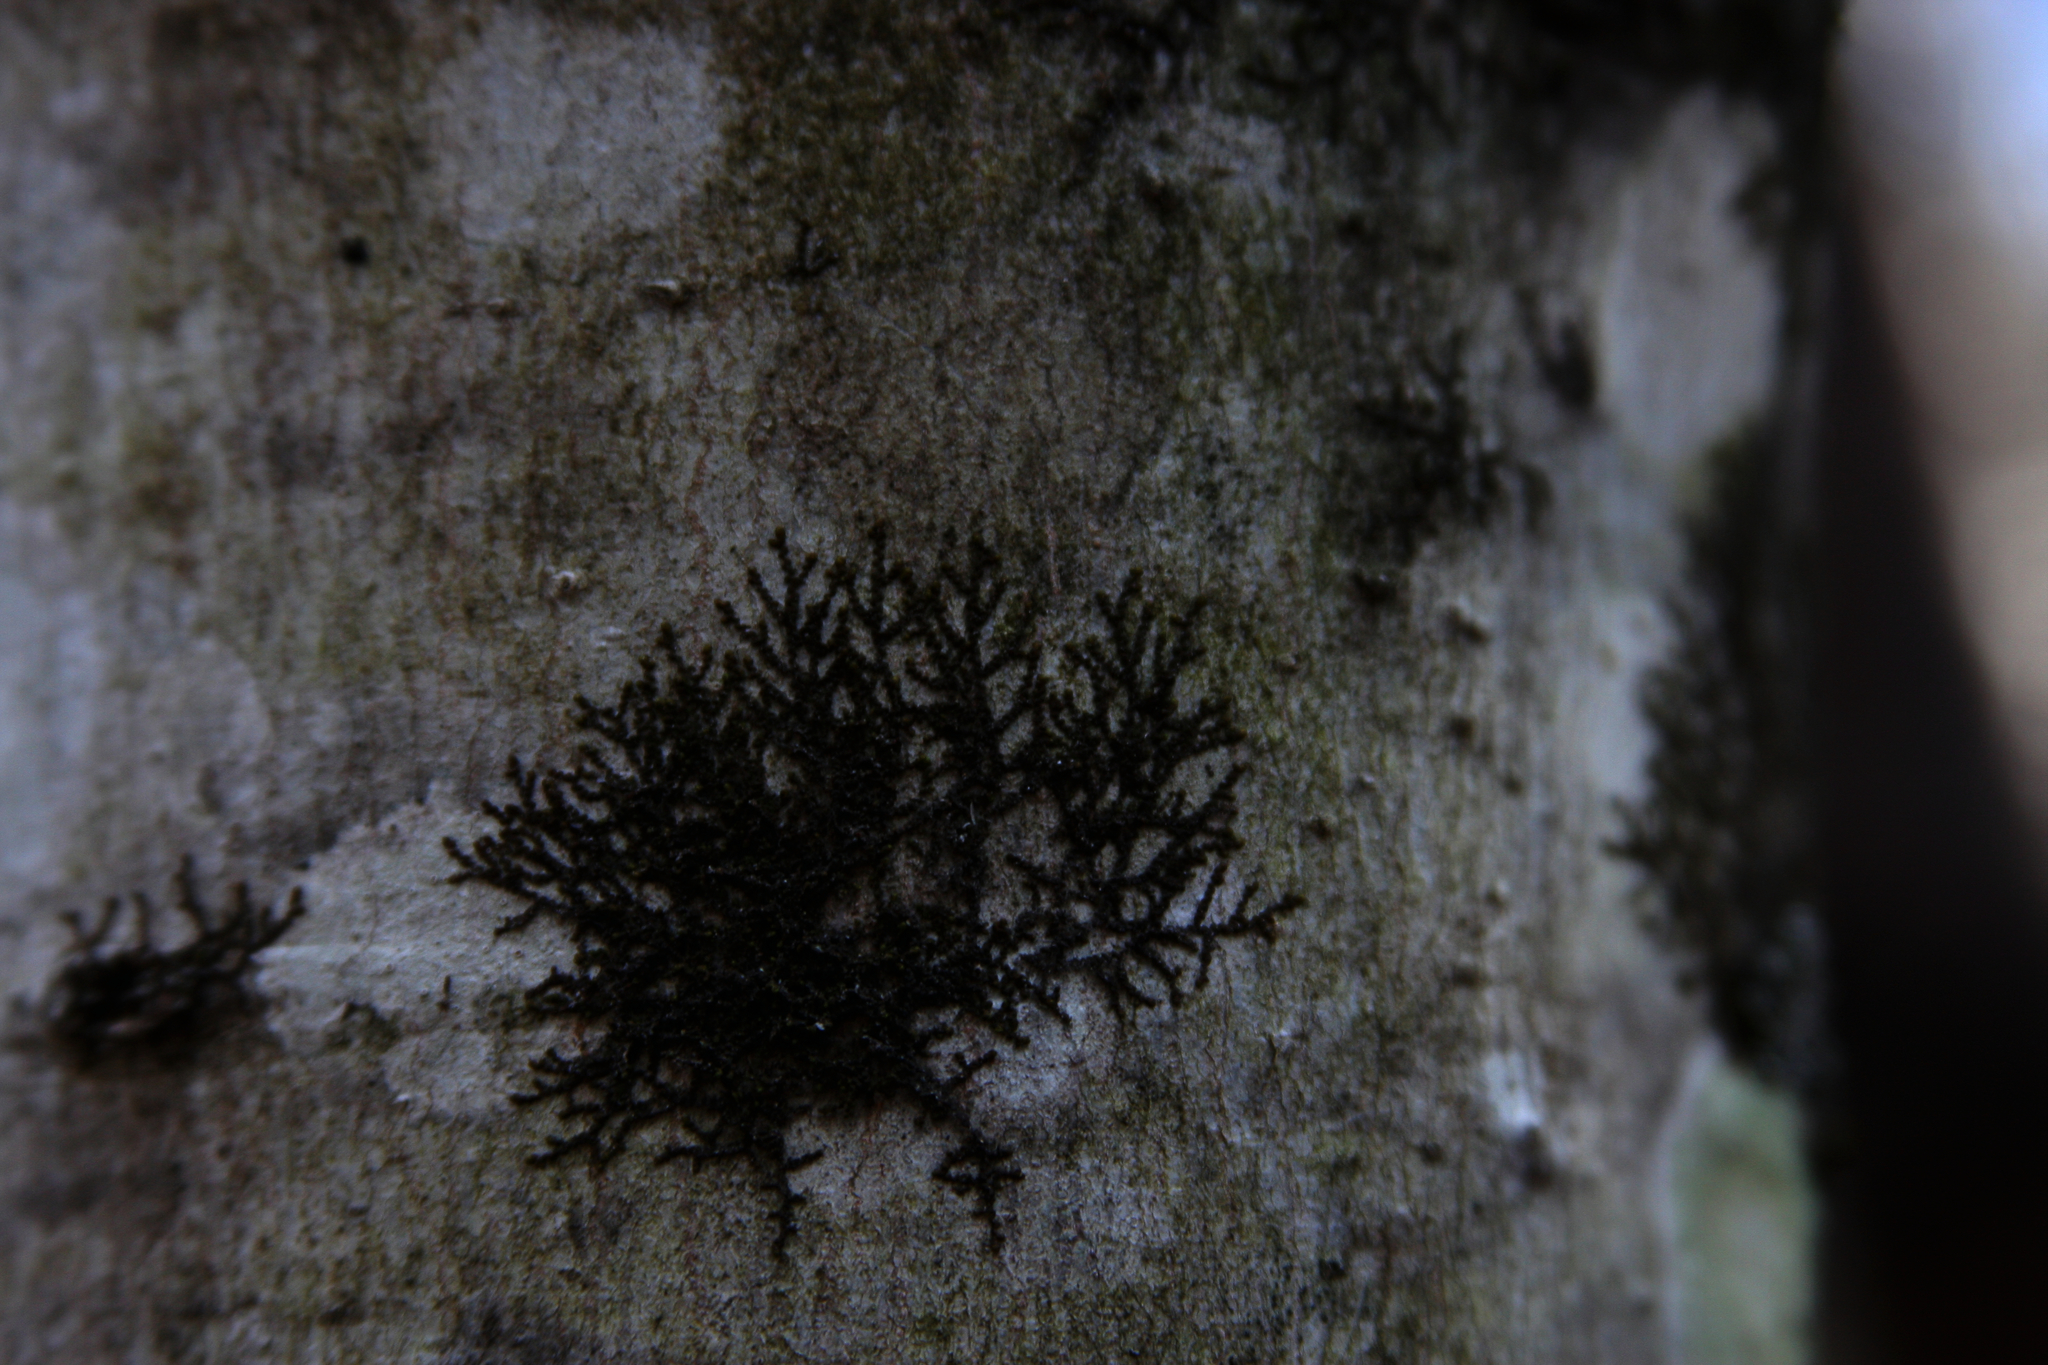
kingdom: Plantae
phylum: Marchantiophyta
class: Jungermanniopsida
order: Porellales
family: Frullaniaceae
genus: Frullania
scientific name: Frullania eboracensis
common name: New york scalewort
